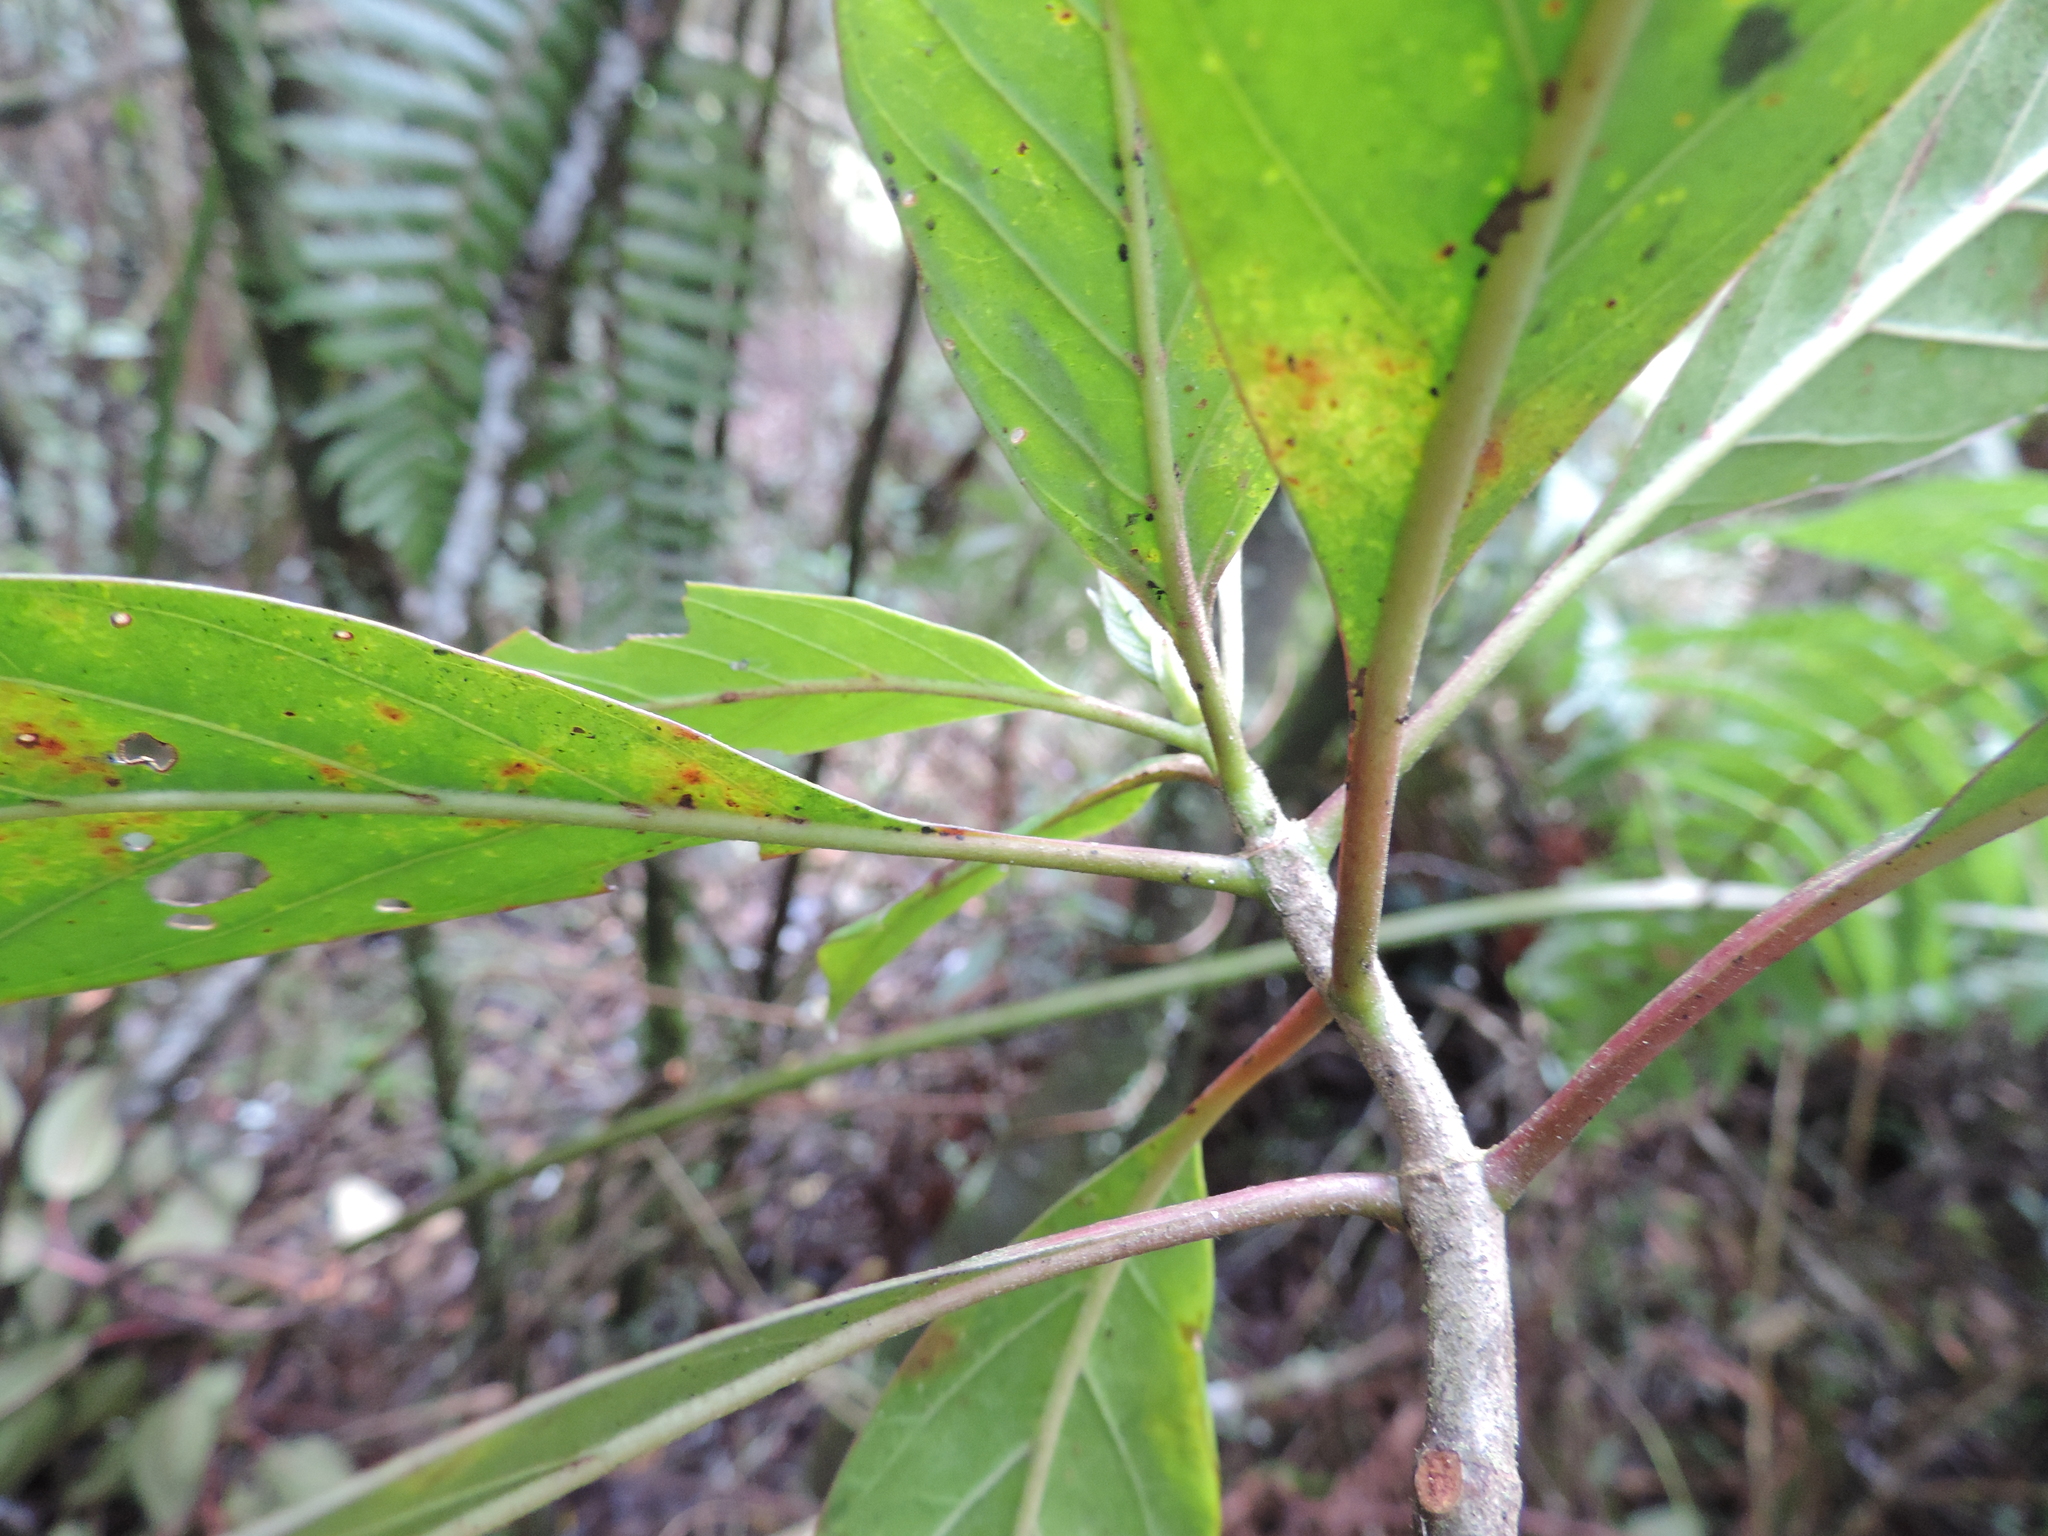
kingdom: Plantae
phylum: Tracheophyta
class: Magnoliopsida
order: Gentianales
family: Rubiaceae
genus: Hillia
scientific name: Hillia parasitica
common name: Morning star
